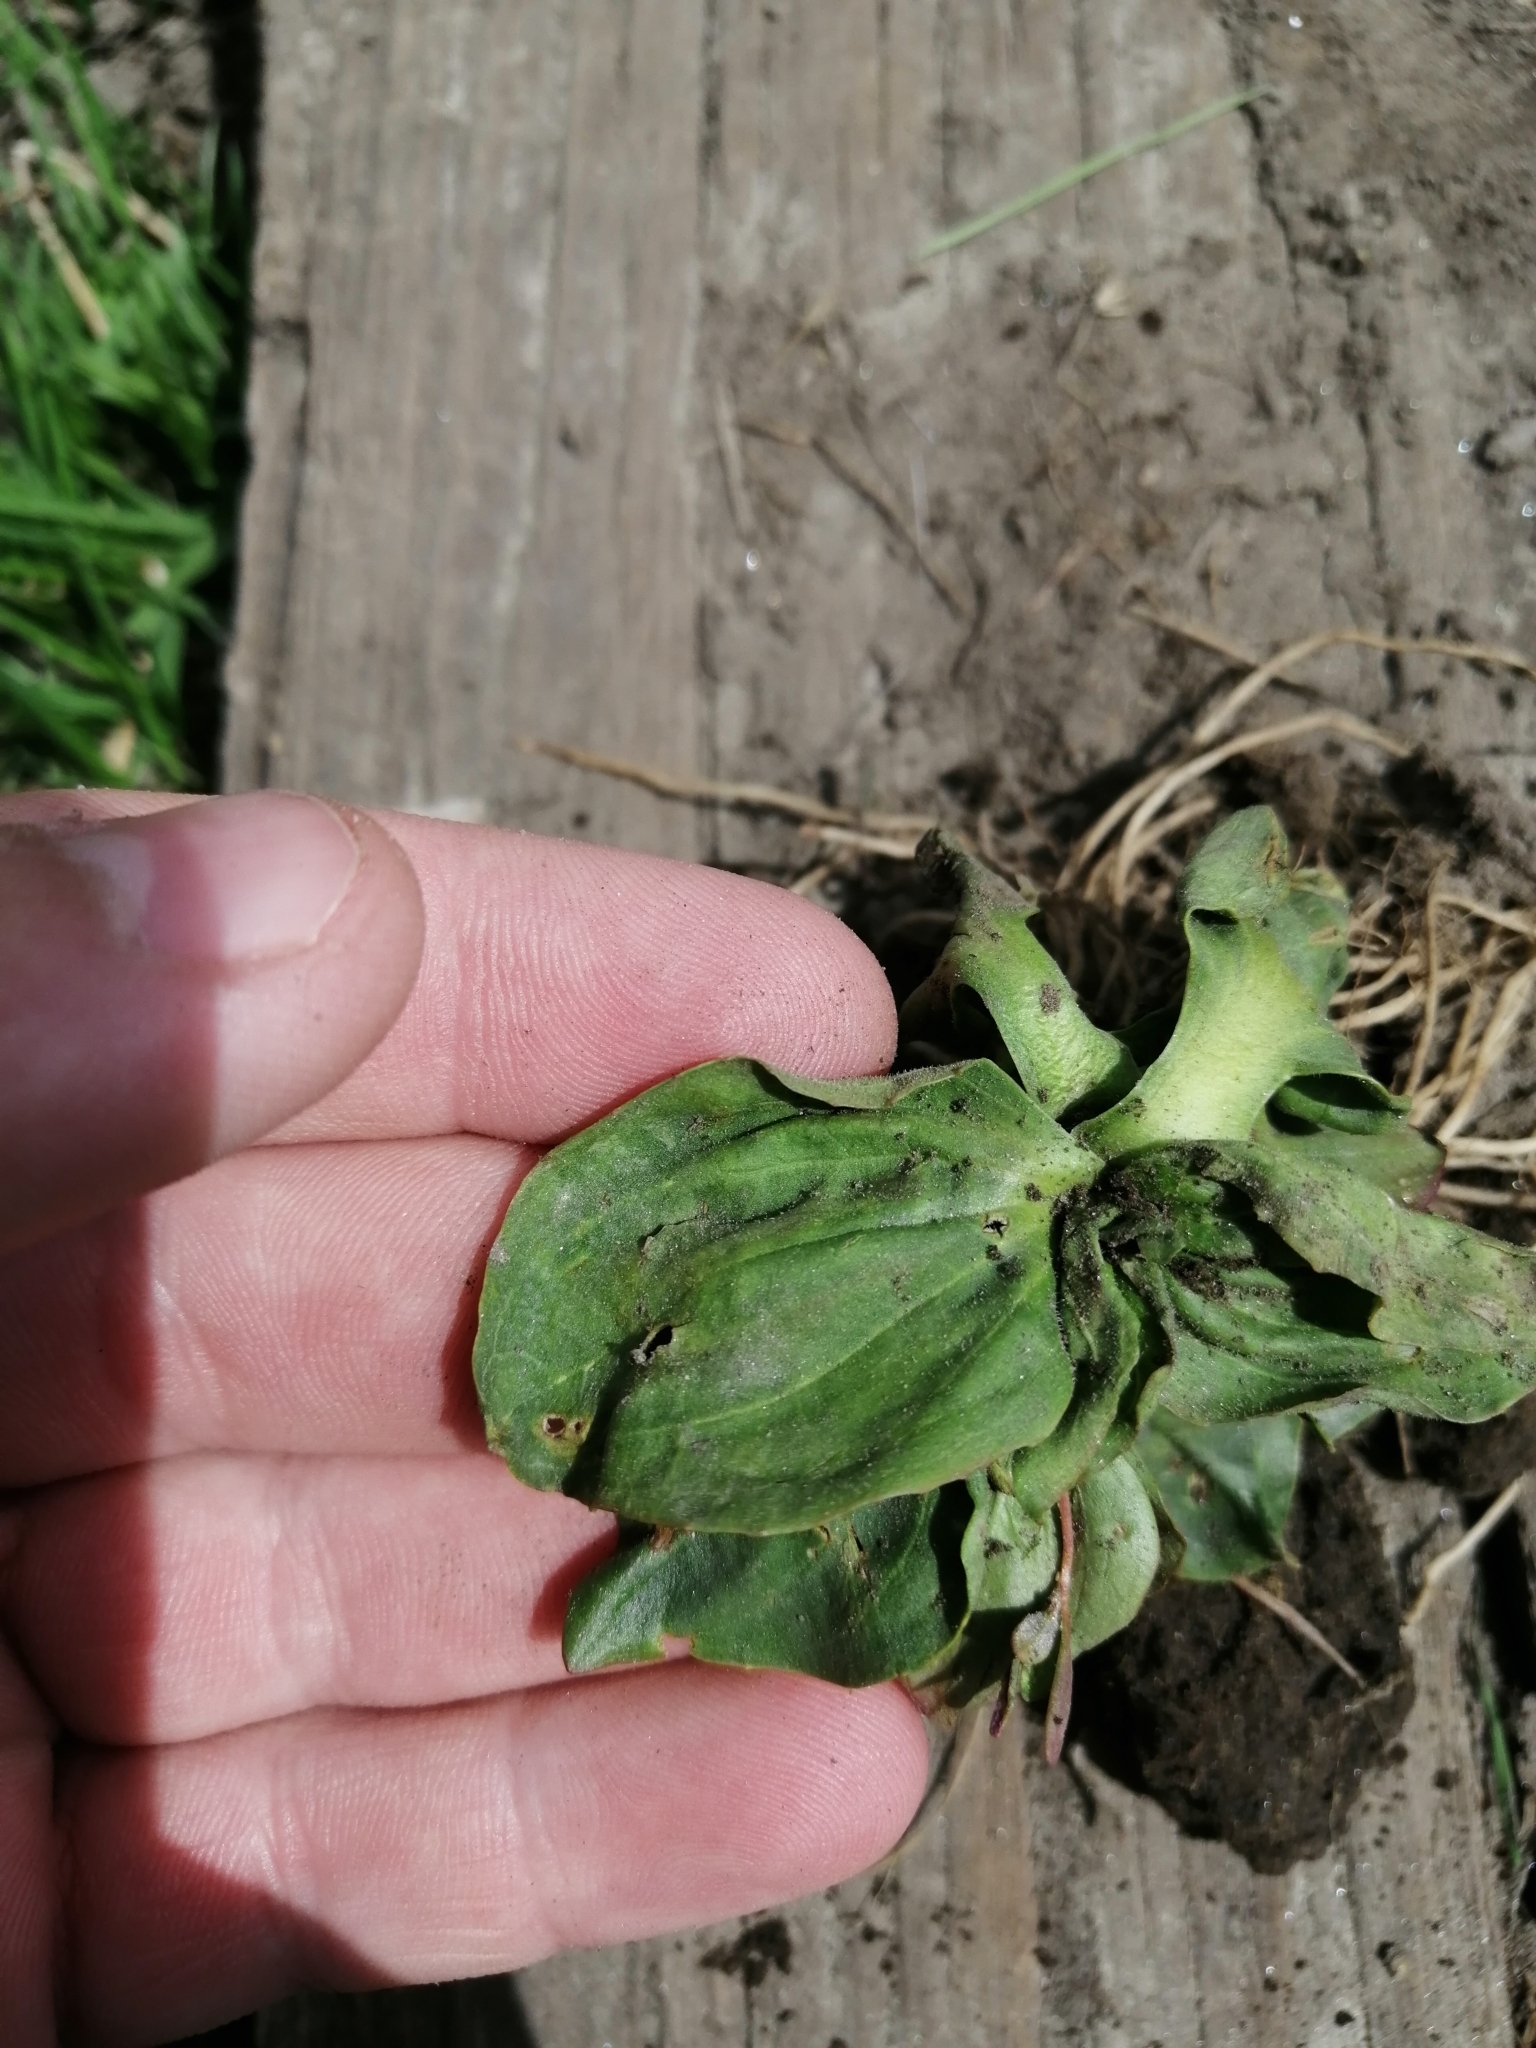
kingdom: Plantae
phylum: Tracheophyta
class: Magnoliopsida
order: Lamiales
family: Plantaginaceae
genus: Plantago
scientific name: Plantago major
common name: Common plantain
